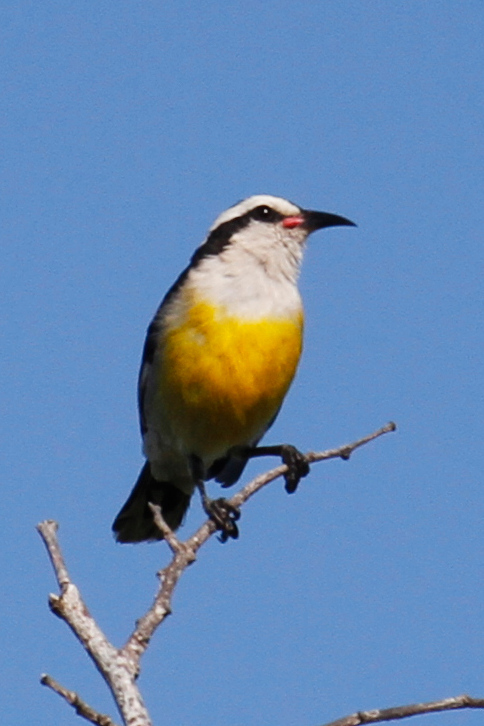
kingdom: Animalia
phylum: Chordata
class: Aves
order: Passeriformes
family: Thraupidae
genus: Coereba
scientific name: Coereba flaveola
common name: Bananaquit
